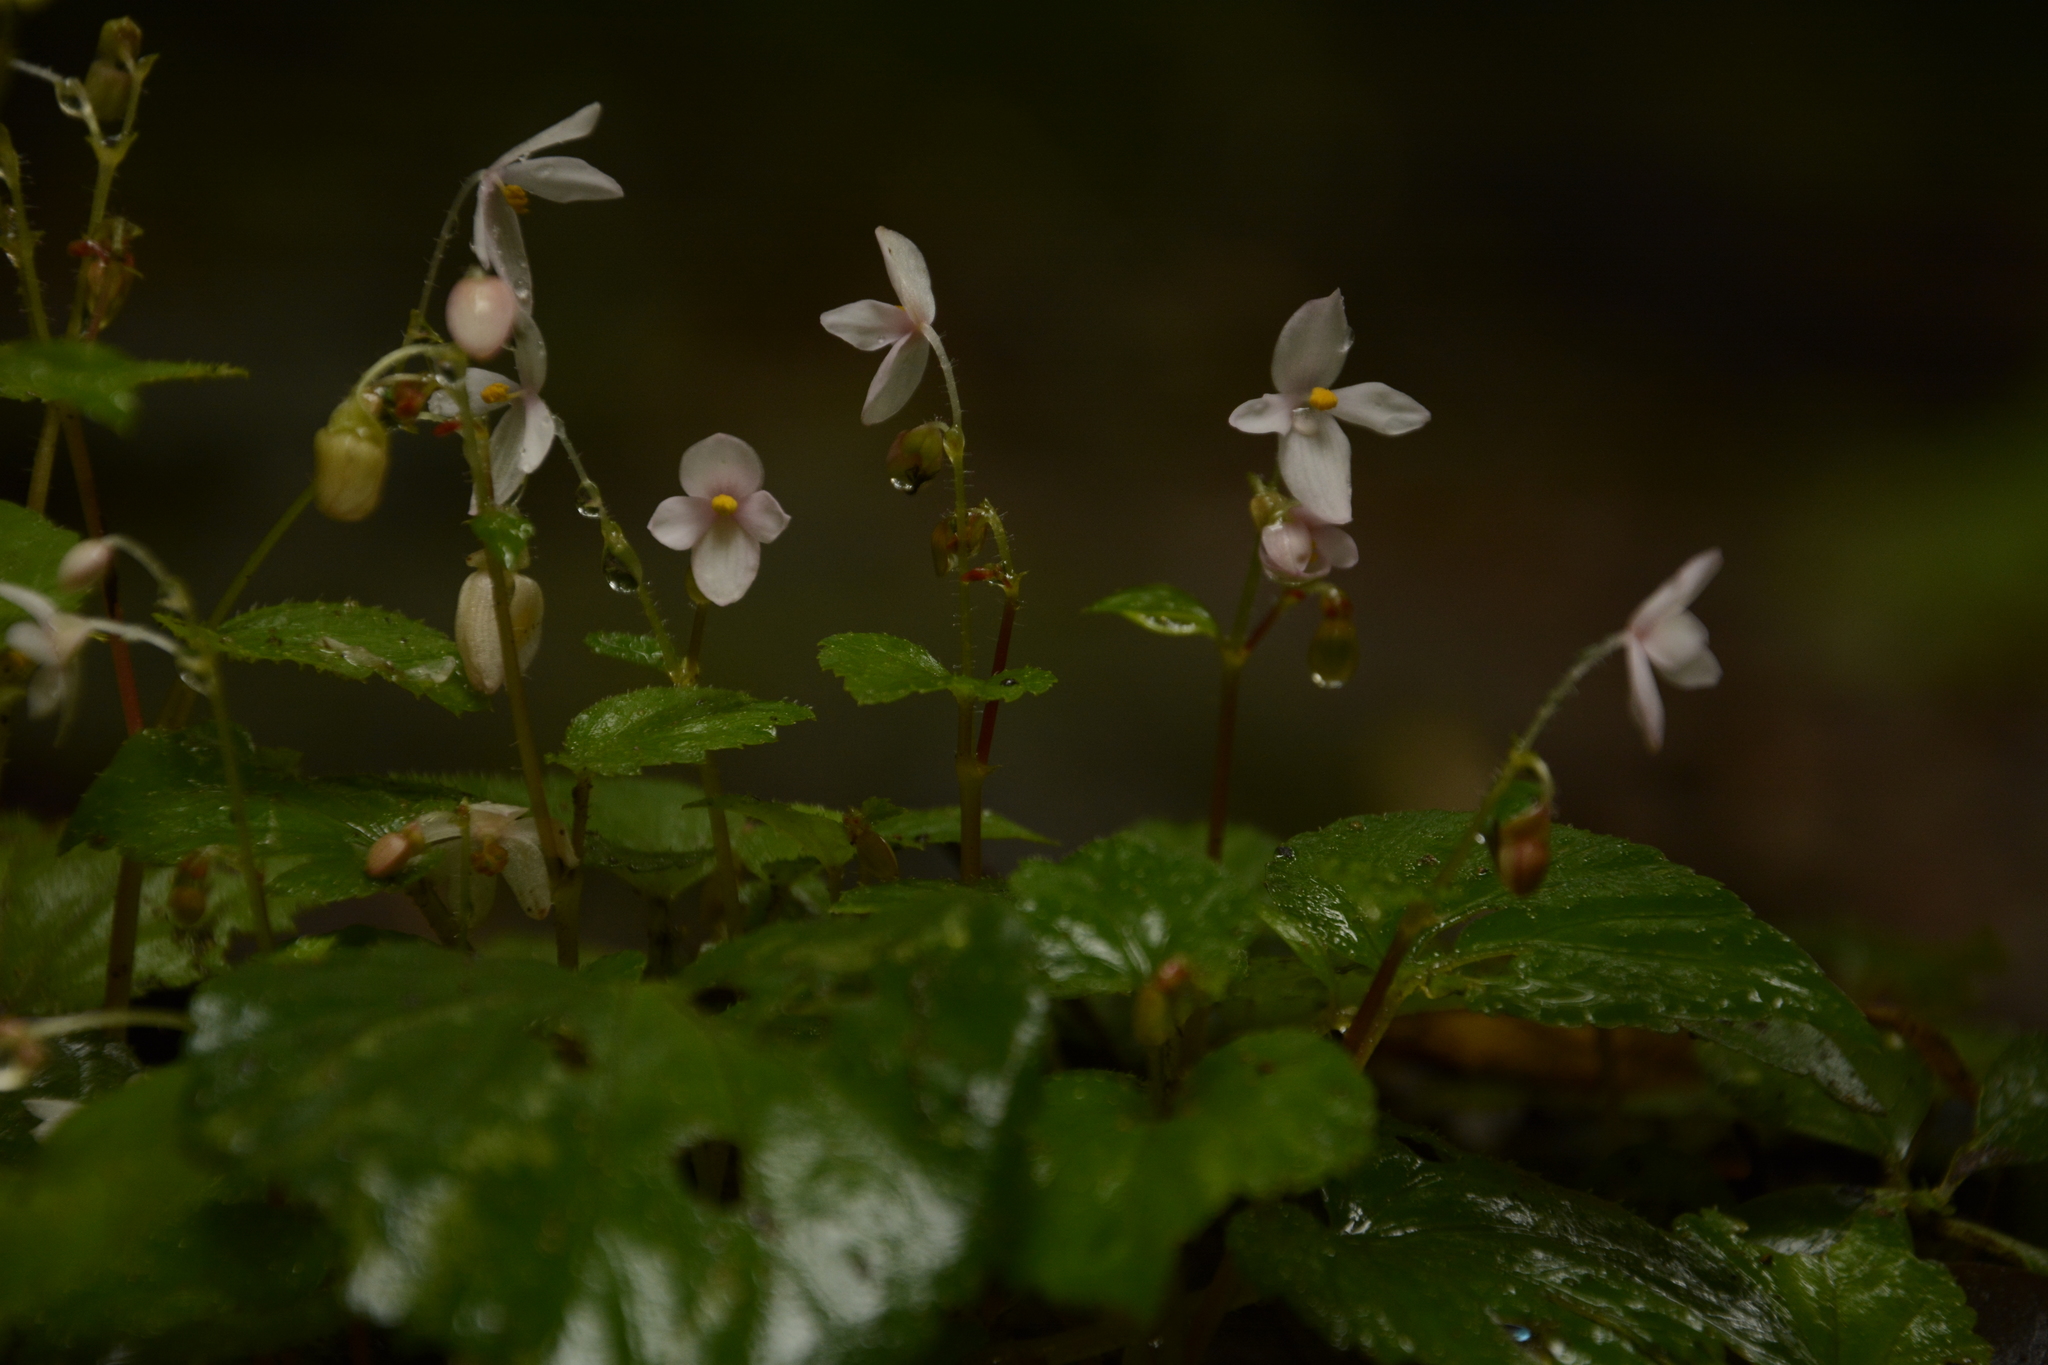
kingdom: Plantae
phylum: Tracheophyta
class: Magnoliopsida
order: Cucurbitales
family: Begoniaceae
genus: Begonia
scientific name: Begonia crenata
